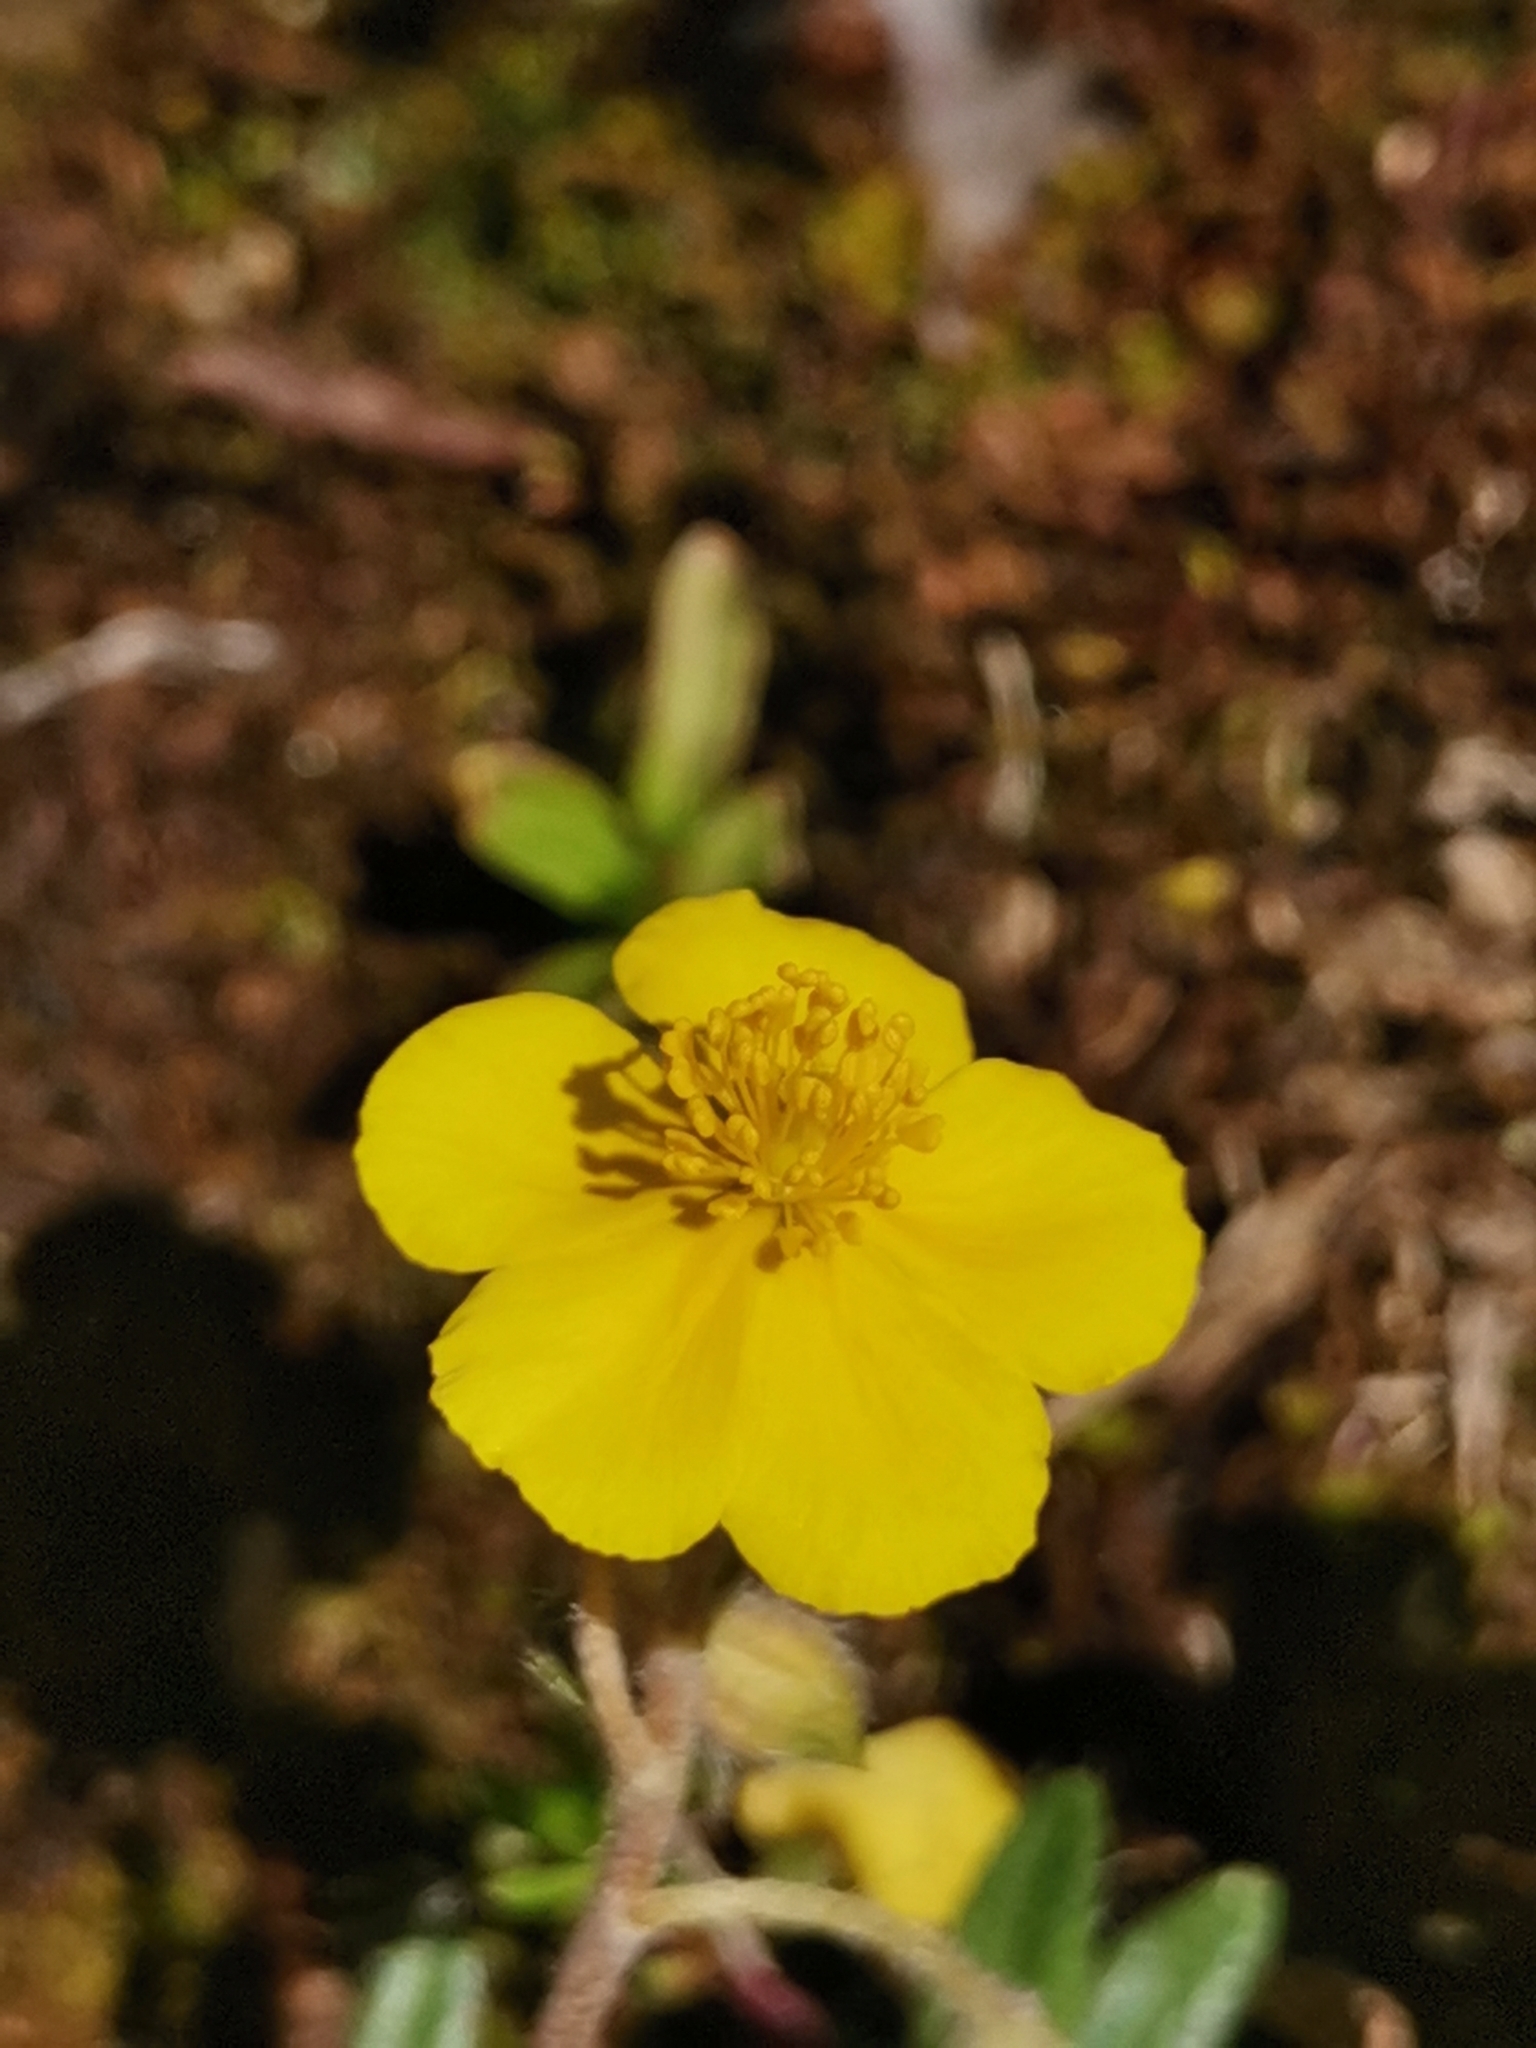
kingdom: Plantae
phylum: Tracheophyta
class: Magnoliopsida
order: Malvales
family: Cistaceae
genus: Helianthemum
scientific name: Helianthemum alpestre
